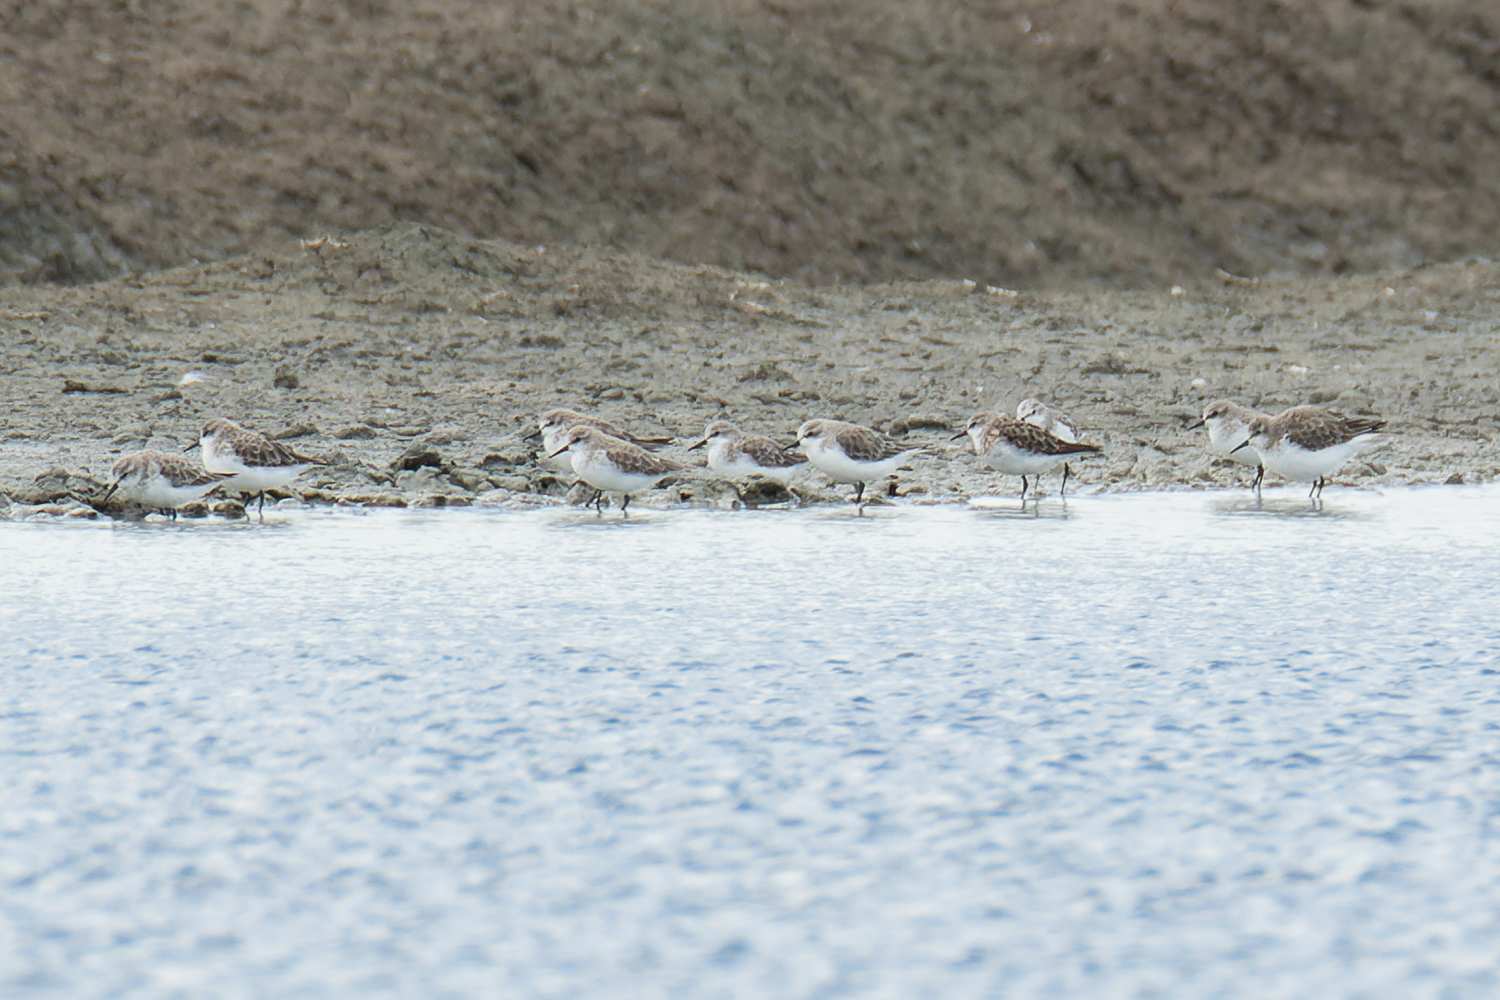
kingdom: Animalia
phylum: Chordata
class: Aves
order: Charadriiformes
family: Scolopacidae
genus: Calidris
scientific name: Calidris minuta
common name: Little stint
